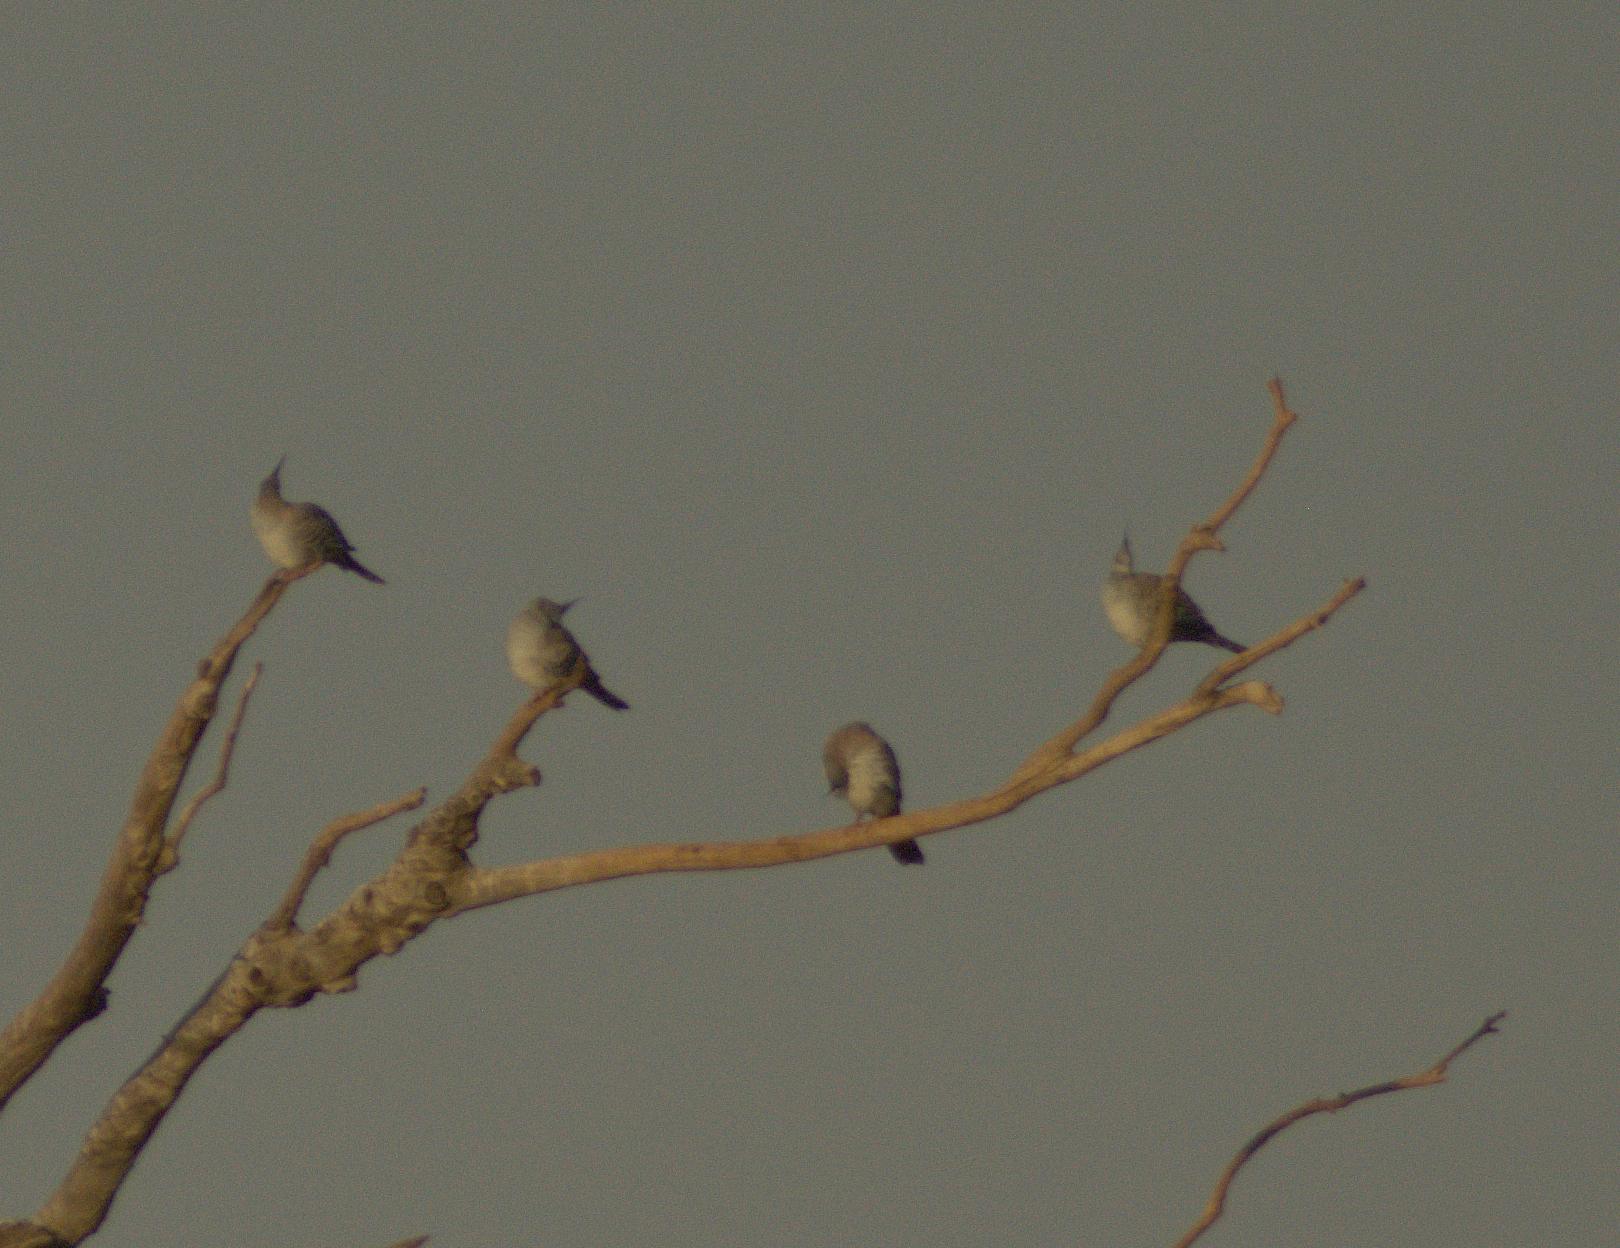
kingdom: Animalia
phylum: Chordata
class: Aves
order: Columbiformes
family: Columbidae
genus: Ocyphaps
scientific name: Ocyphaps lophotes
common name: Crested pigeon
